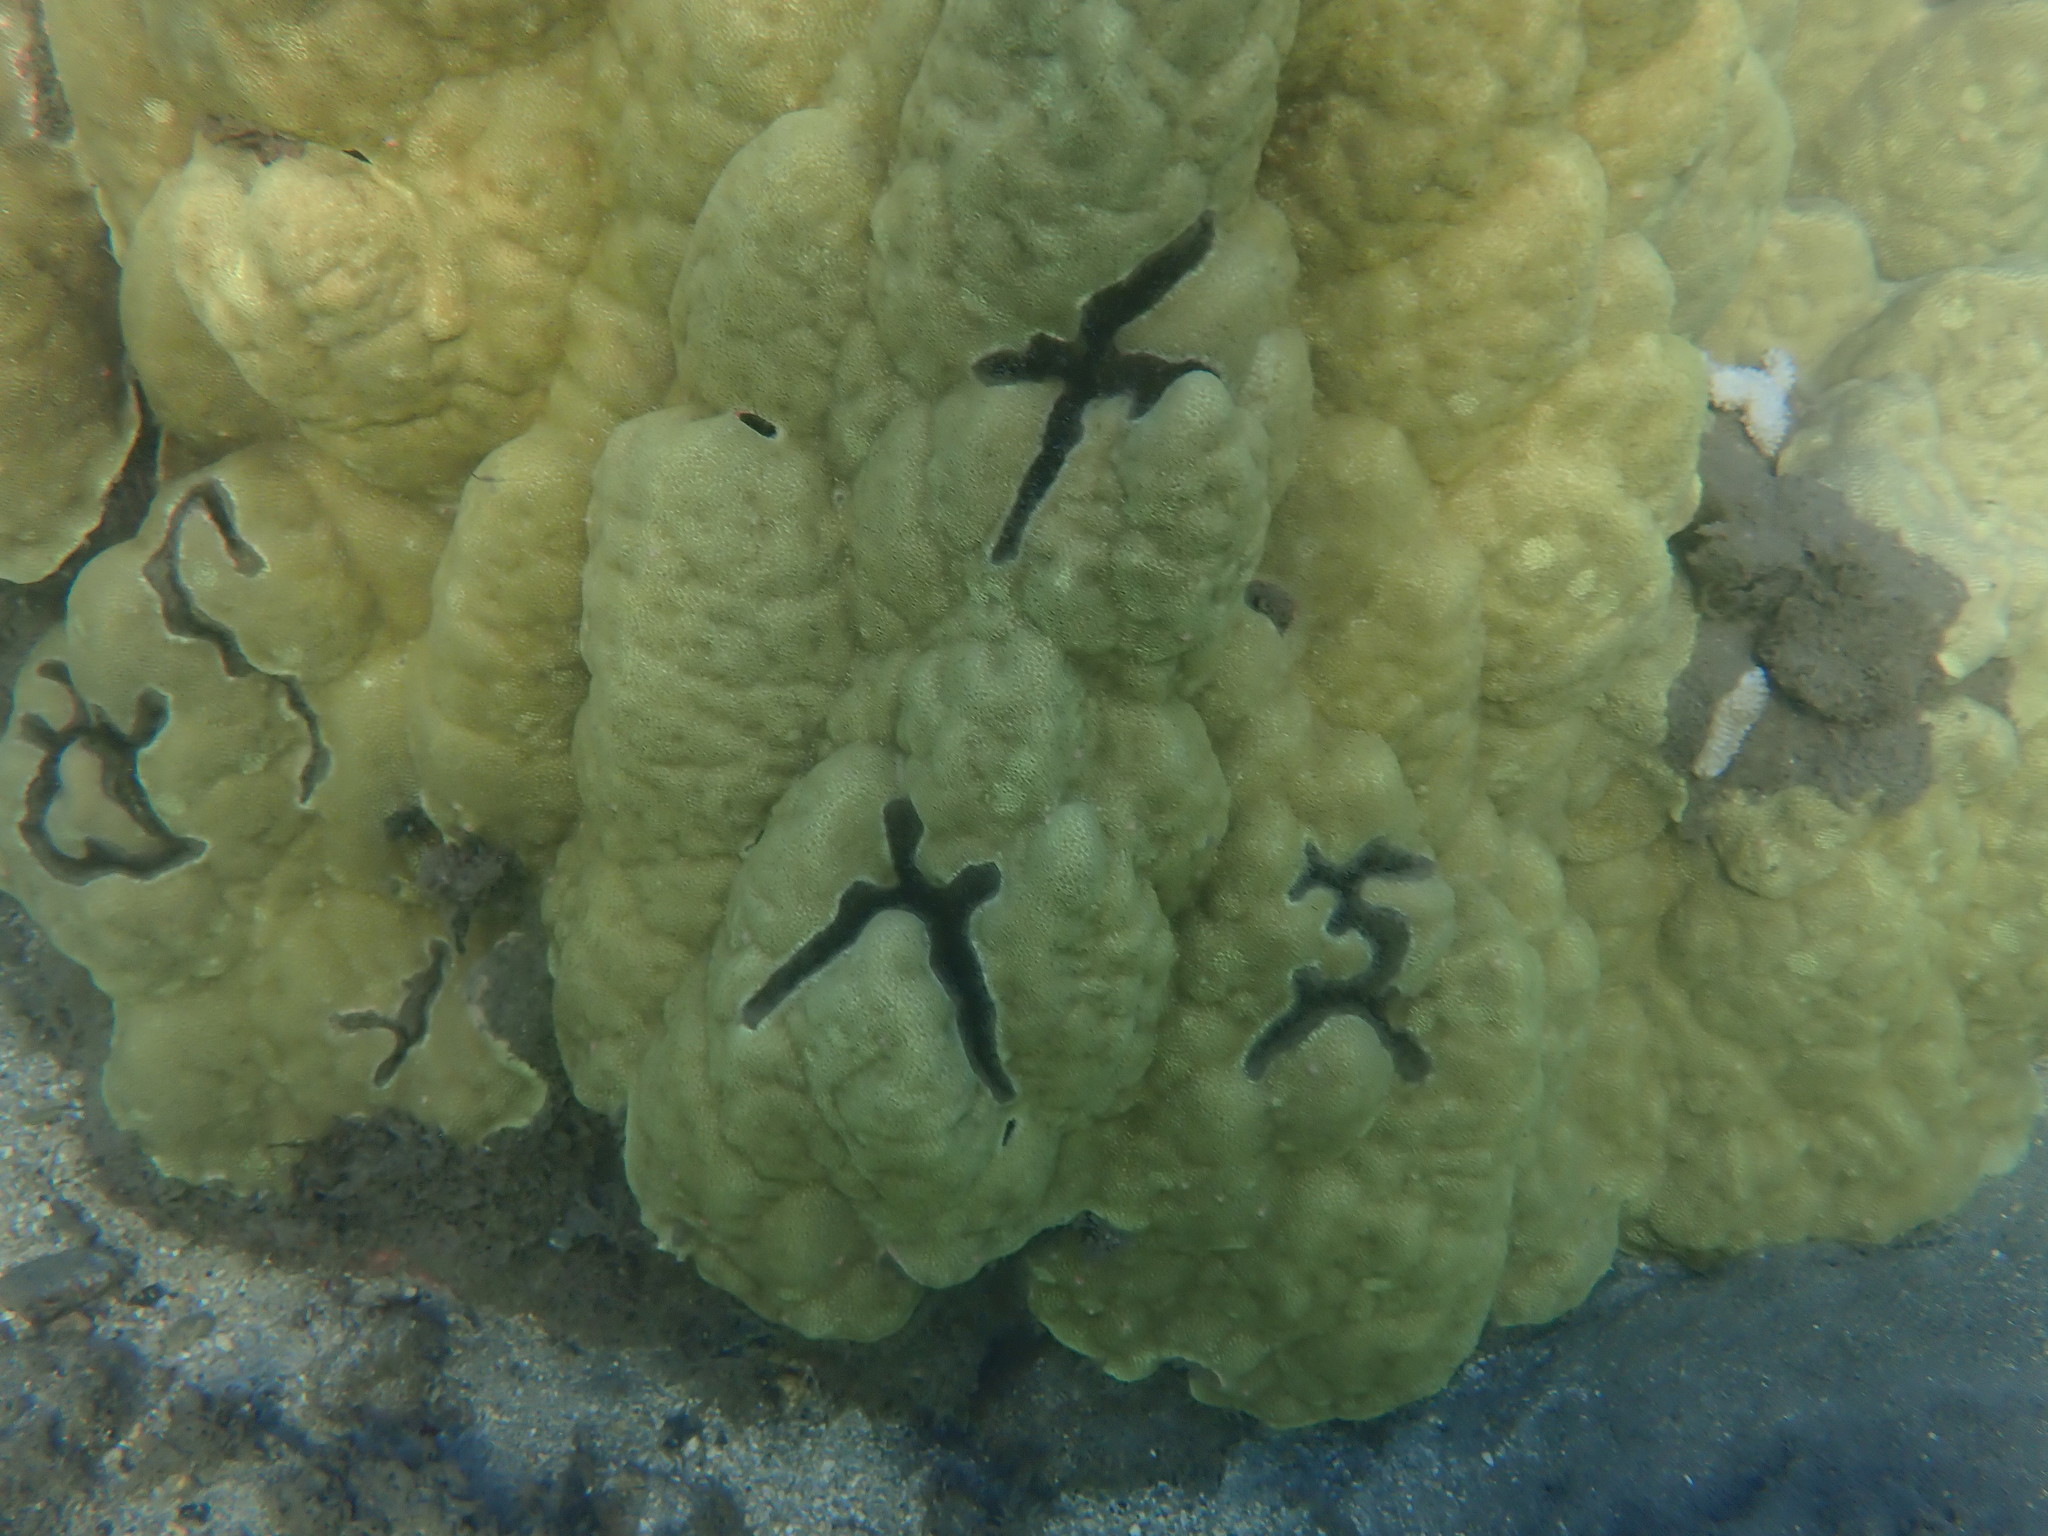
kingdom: Animalia
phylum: Arthropoda
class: Malacostraca
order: Decapoda
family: Alpheidae
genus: Alpheus
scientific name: Alpheus deuteropus
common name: Petroglyph shrimp
